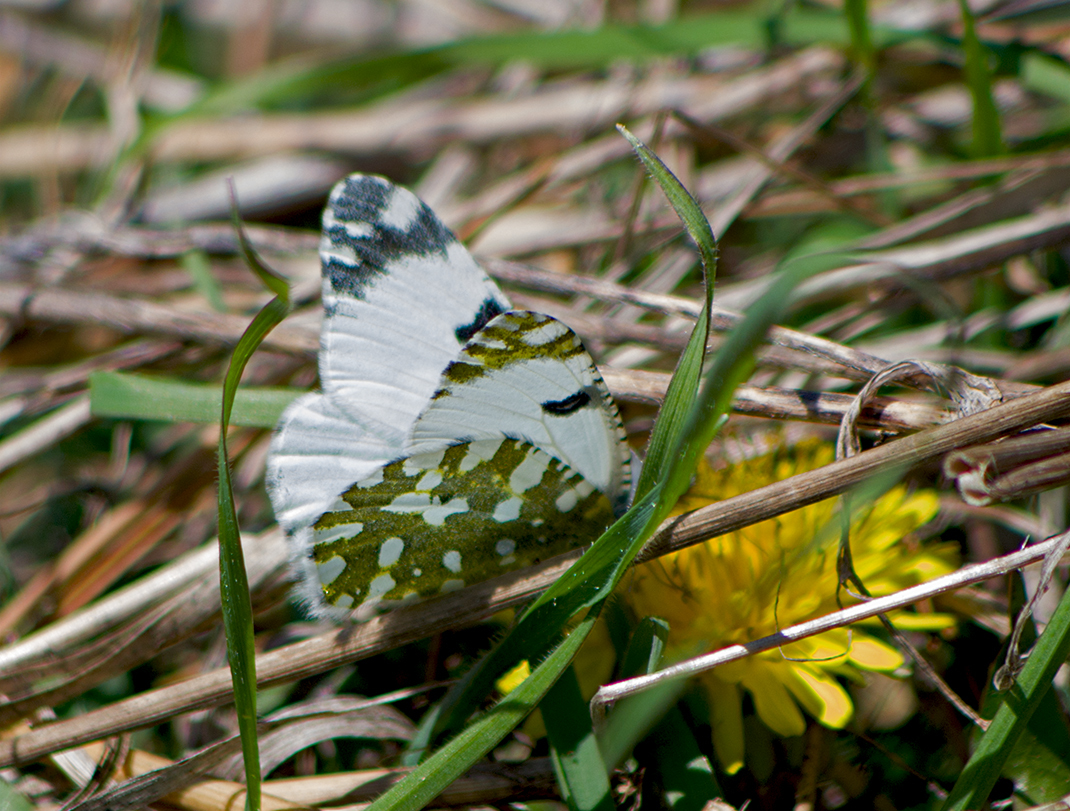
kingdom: Animalia
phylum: Arthropoda
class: Insecta
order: Lepidoptera
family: Pieridae
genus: Euchloe
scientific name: Euchloe ausonia
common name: Eastern dappled white
